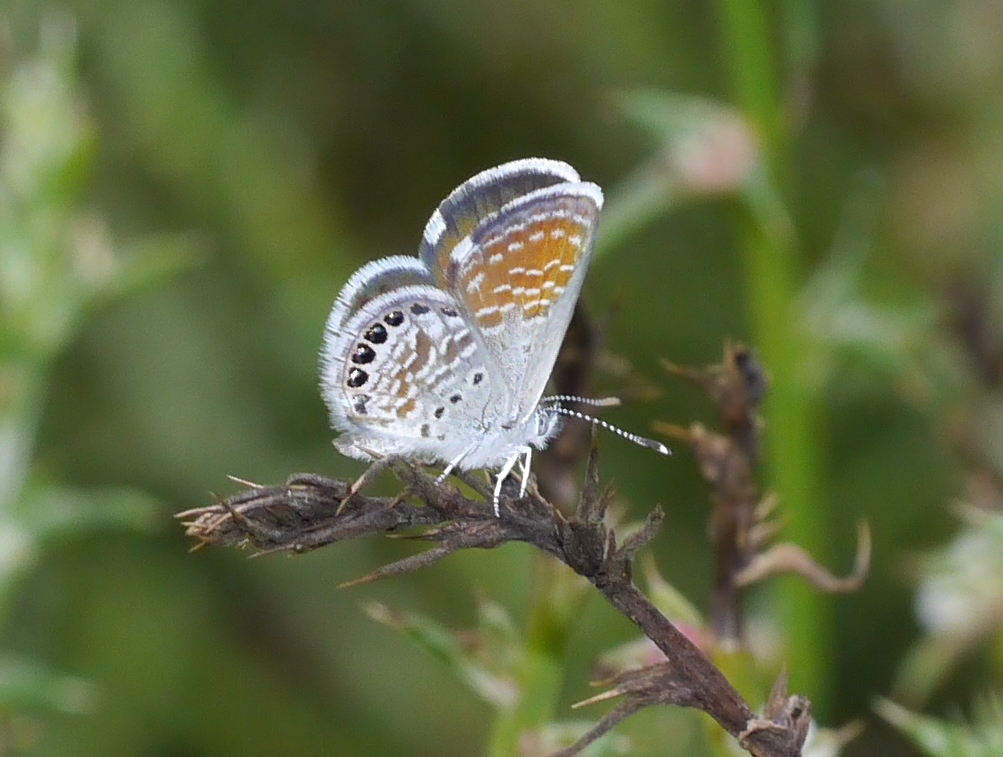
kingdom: Animalia
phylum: Arthropoda
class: Insecta
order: Lepidoptera
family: Lycaenidae
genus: Brephidium
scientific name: Brephidium exilis
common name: Pygmy blue
